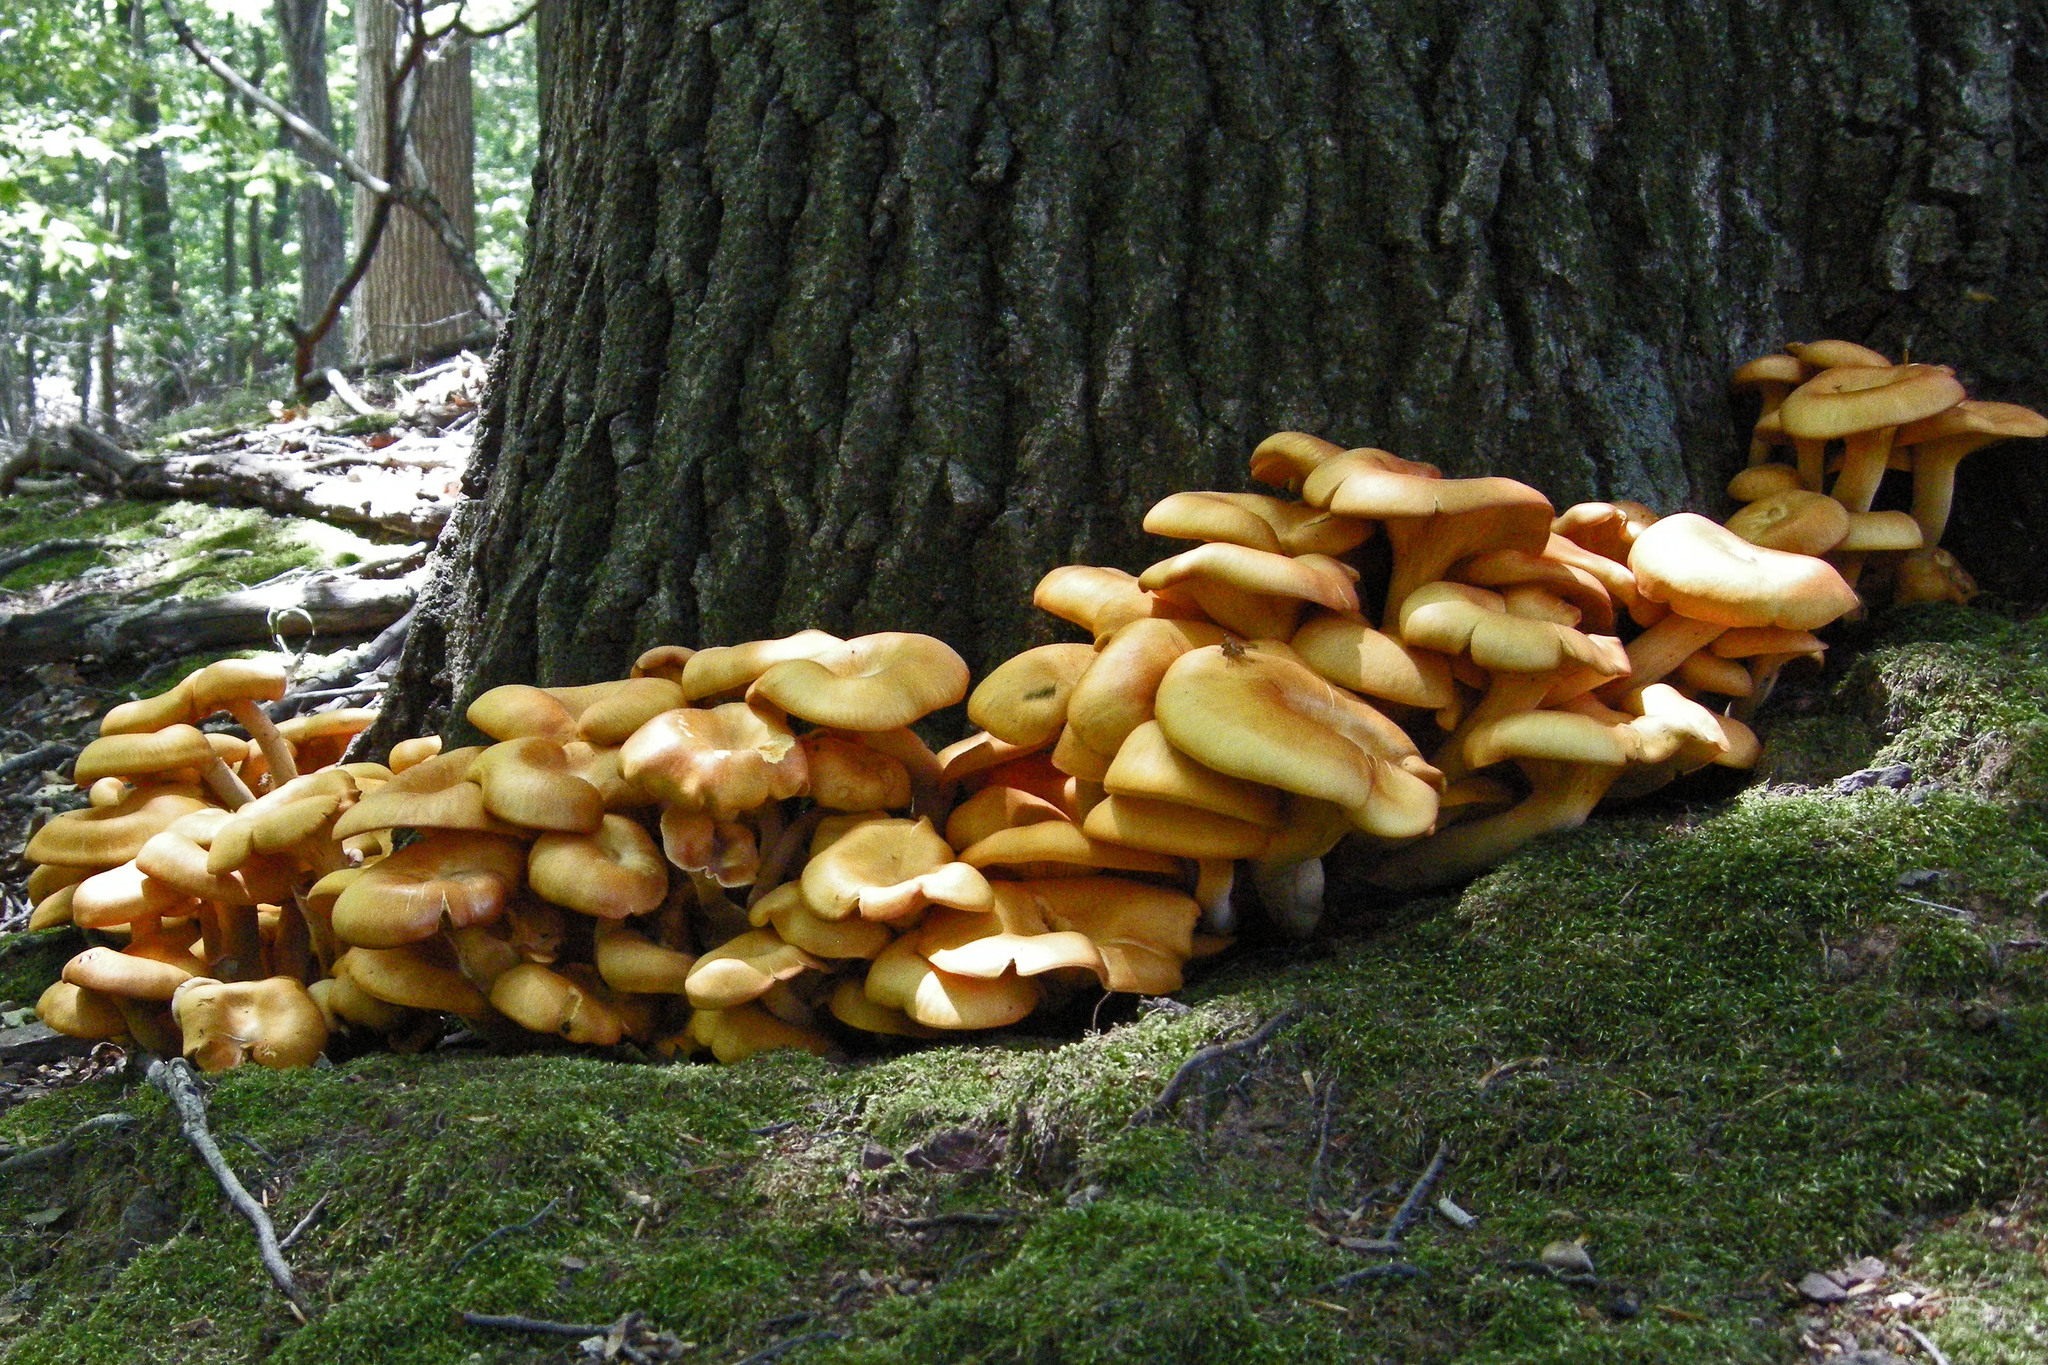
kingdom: Fungi
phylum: Basidiomycota
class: Agaricomycetes
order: Agaricales
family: Omphalotaceae
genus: Omphalotus
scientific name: Omphalotus illudens
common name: Jack o lantern
